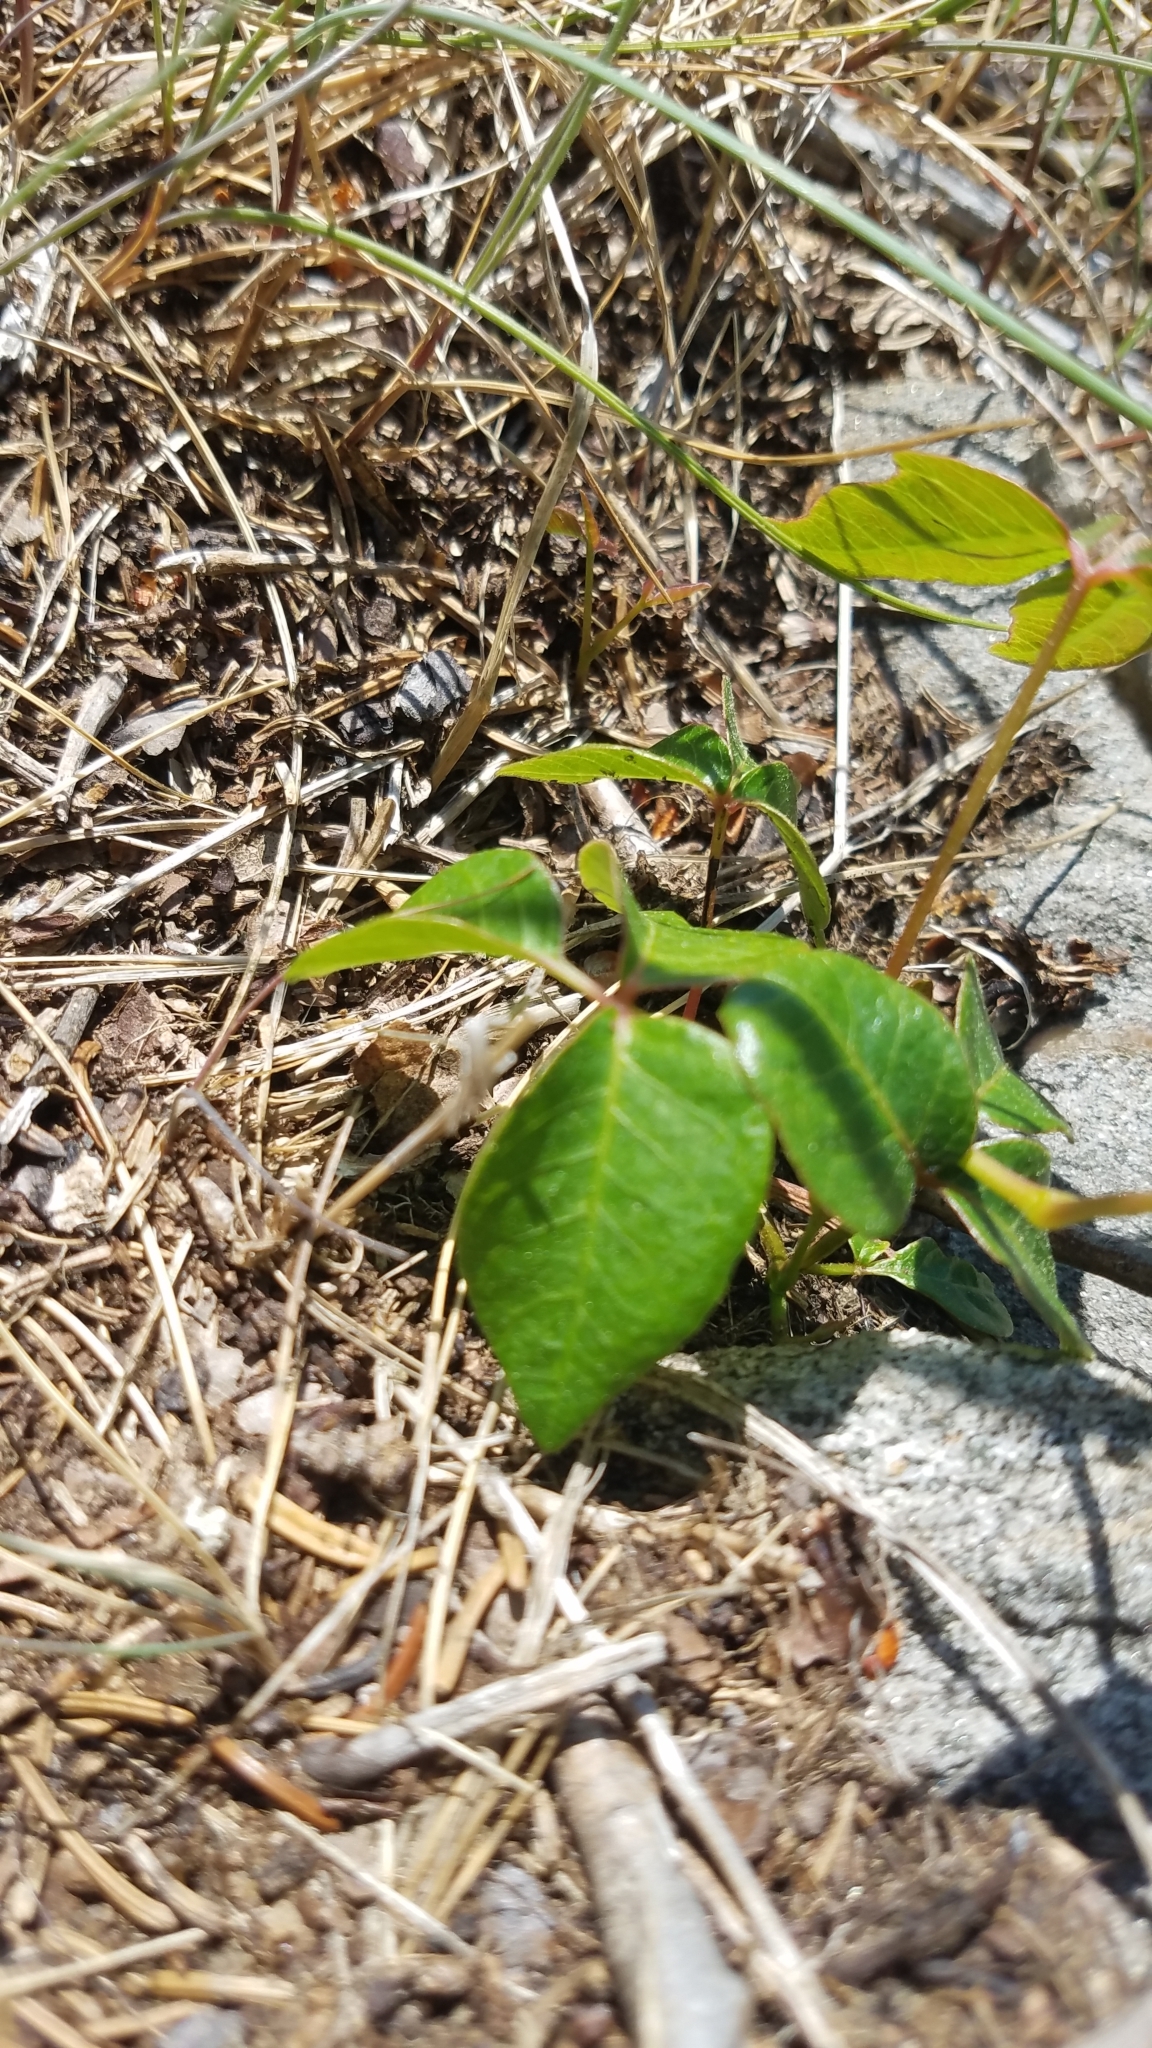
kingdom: Plantae
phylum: Tracheophyta
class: Magnoliopsida
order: Sapindales
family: Anacardiaceae
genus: Toxicodendron
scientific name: Toxicodendron radicans
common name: Poison ivy
